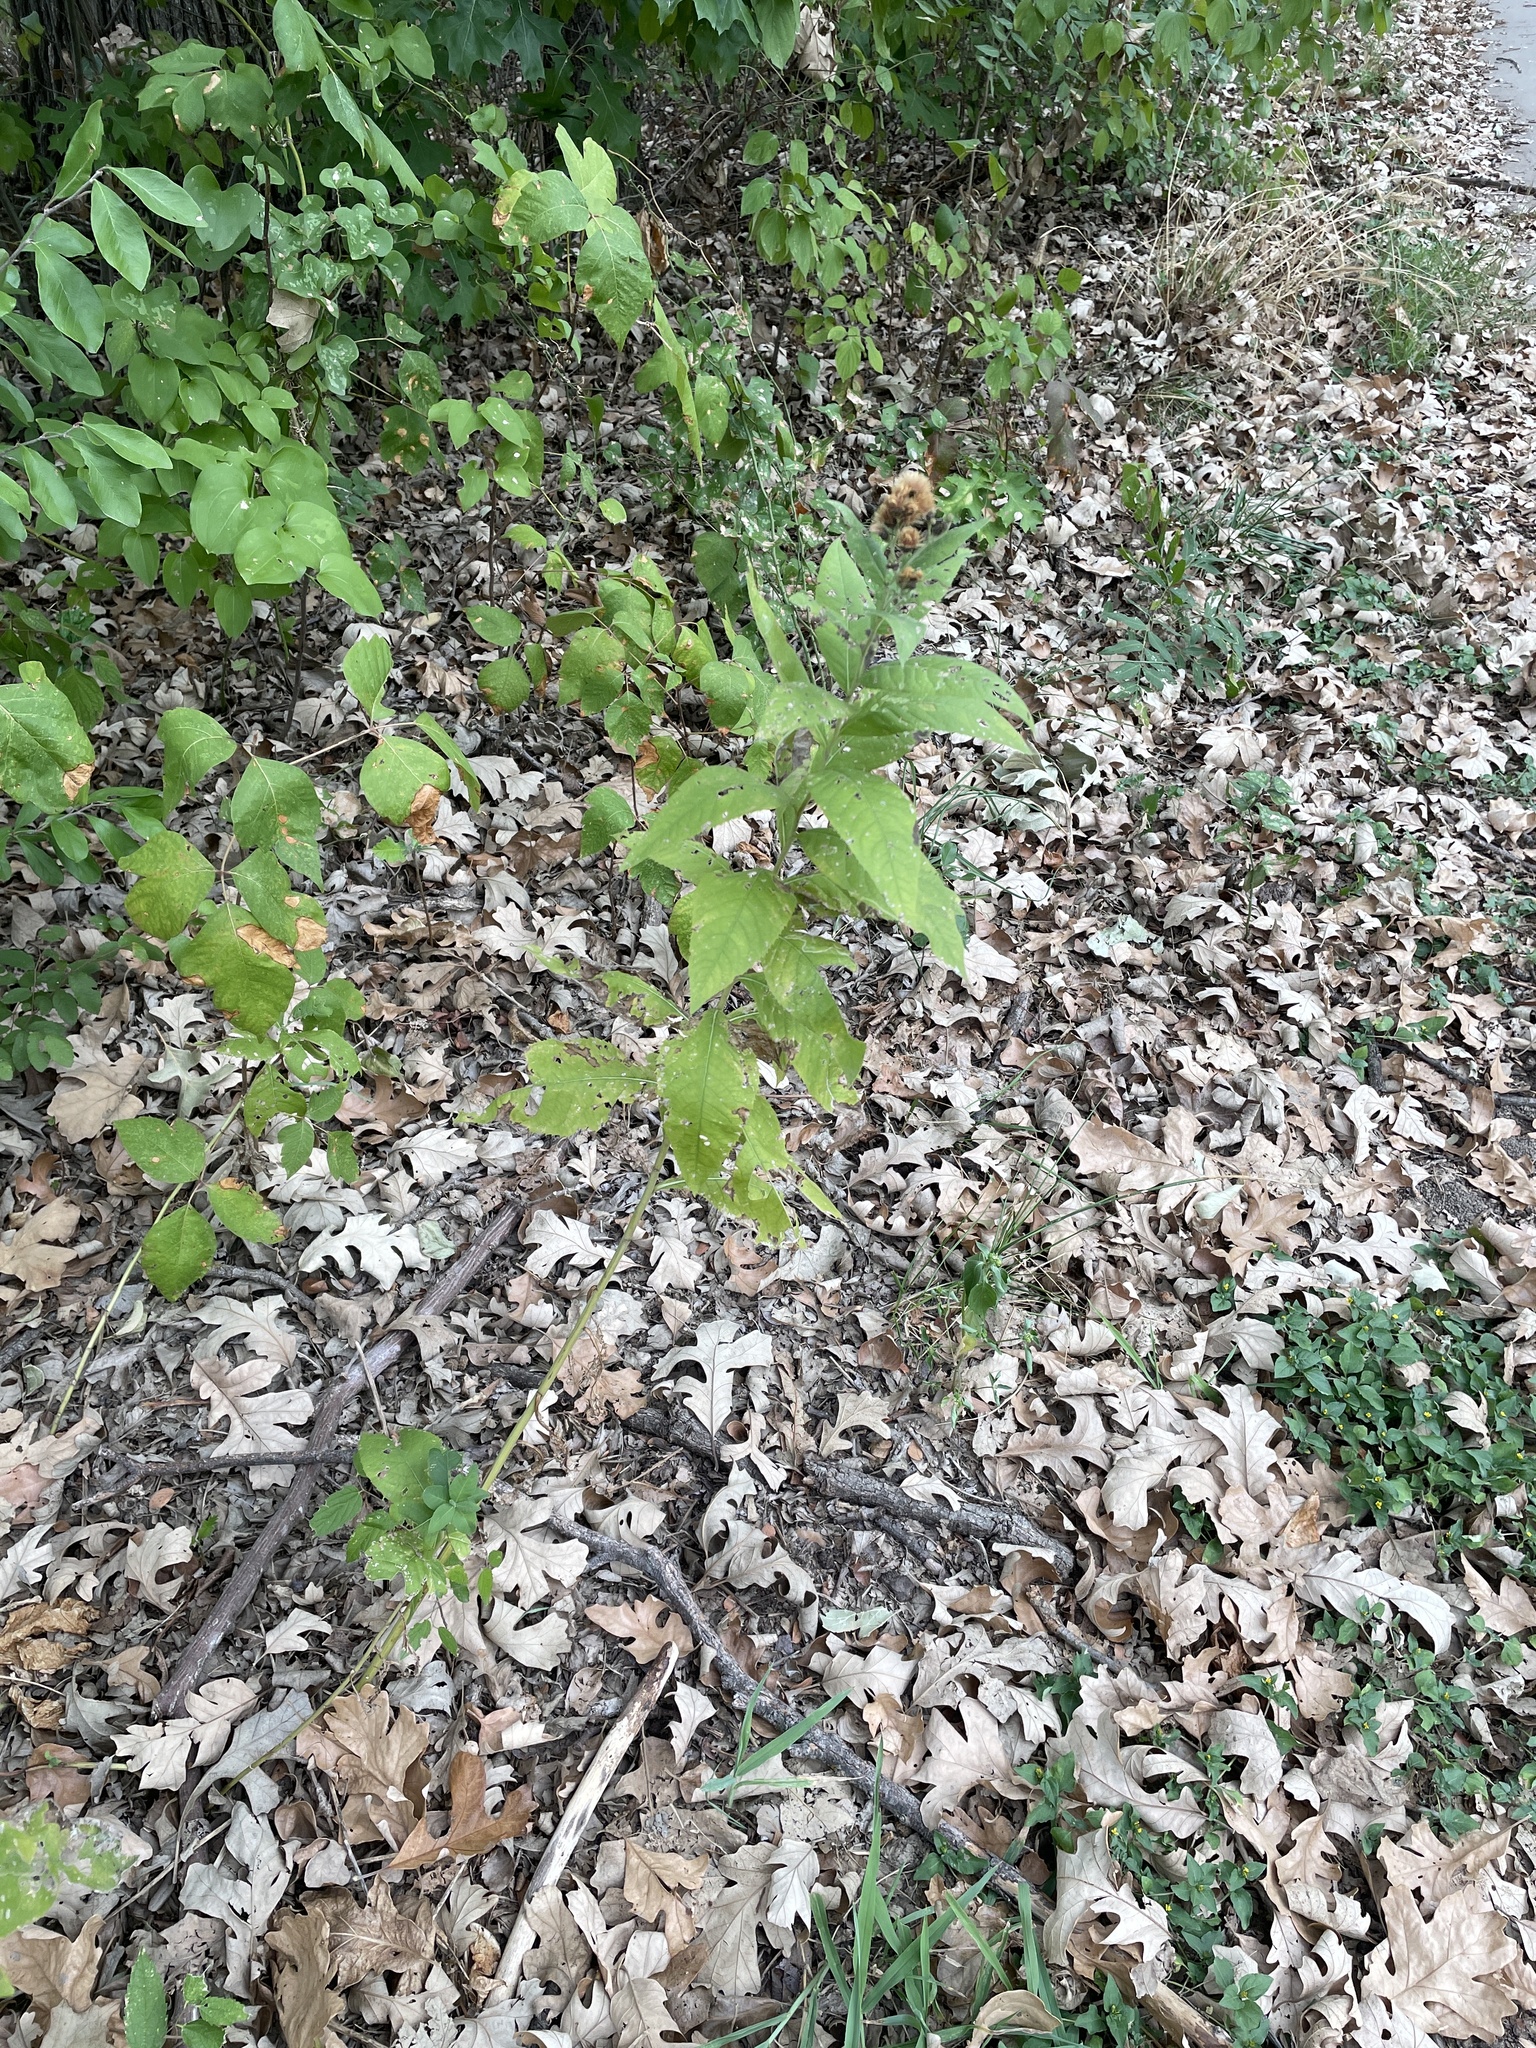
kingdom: Plantae
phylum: Tracheophyta
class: Magnoliopsida
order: Asterales
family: Asteraceae
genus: Vernonia
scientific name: Vernonia baldwinii
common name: Western ironweed
